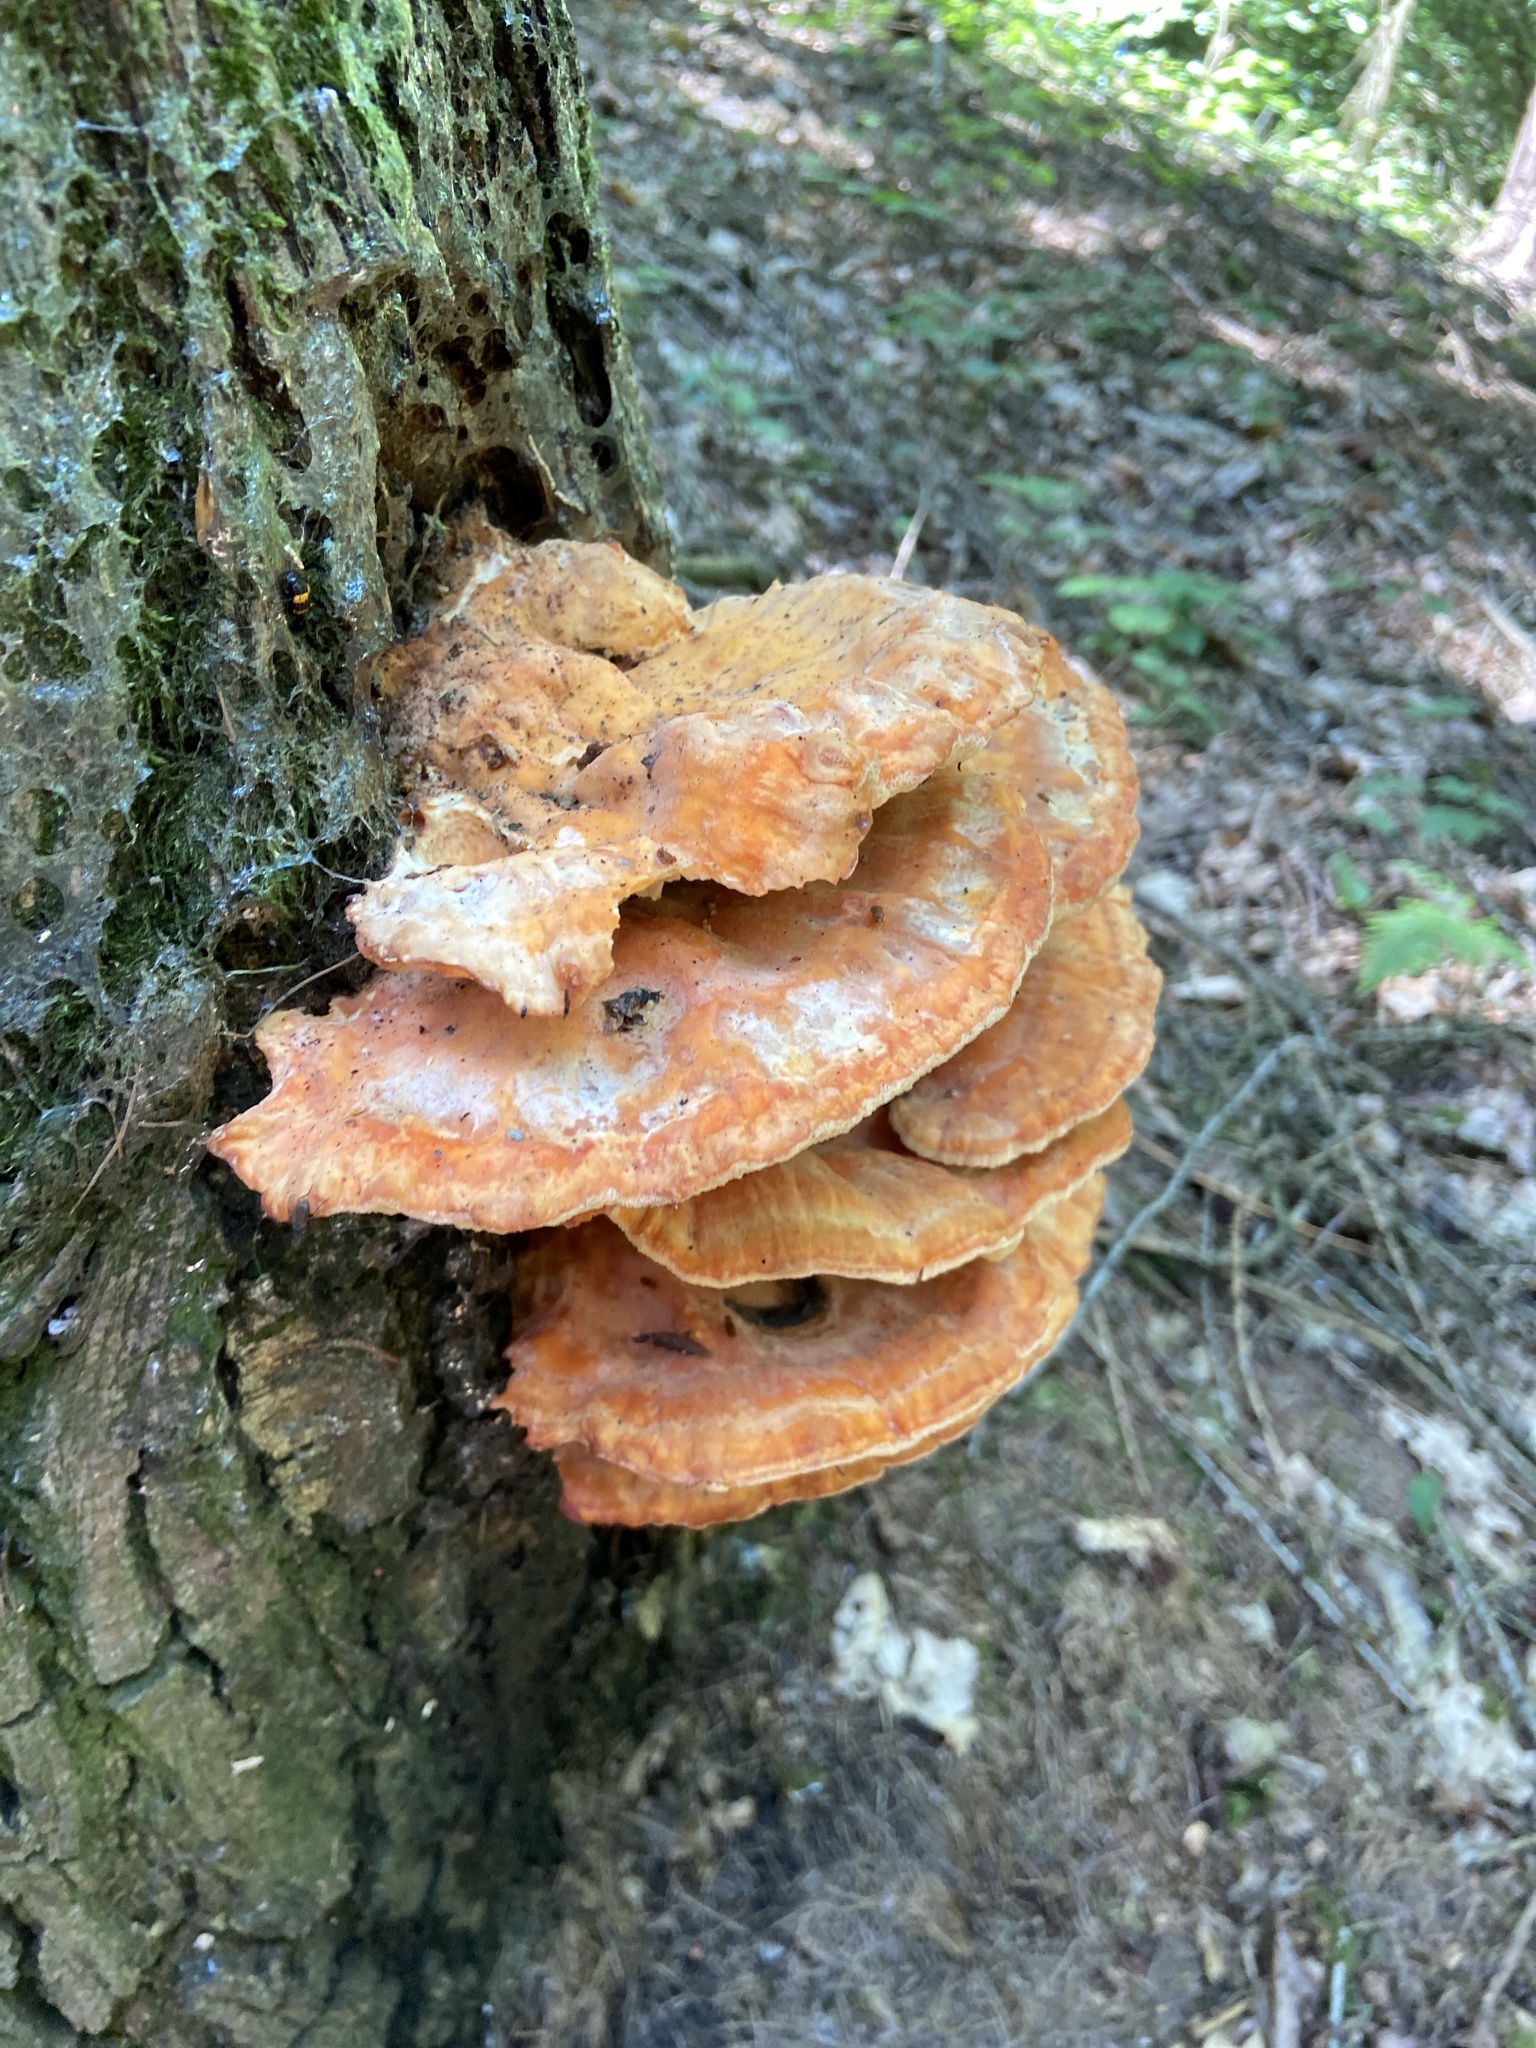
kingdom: Fungi
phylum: Basidiomycota
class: Agaricomycetes
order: Polyporales
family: Laetiporaceae
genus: Laetiporus
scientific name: Laetiporus sulphureus
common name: Chicken of the woods
